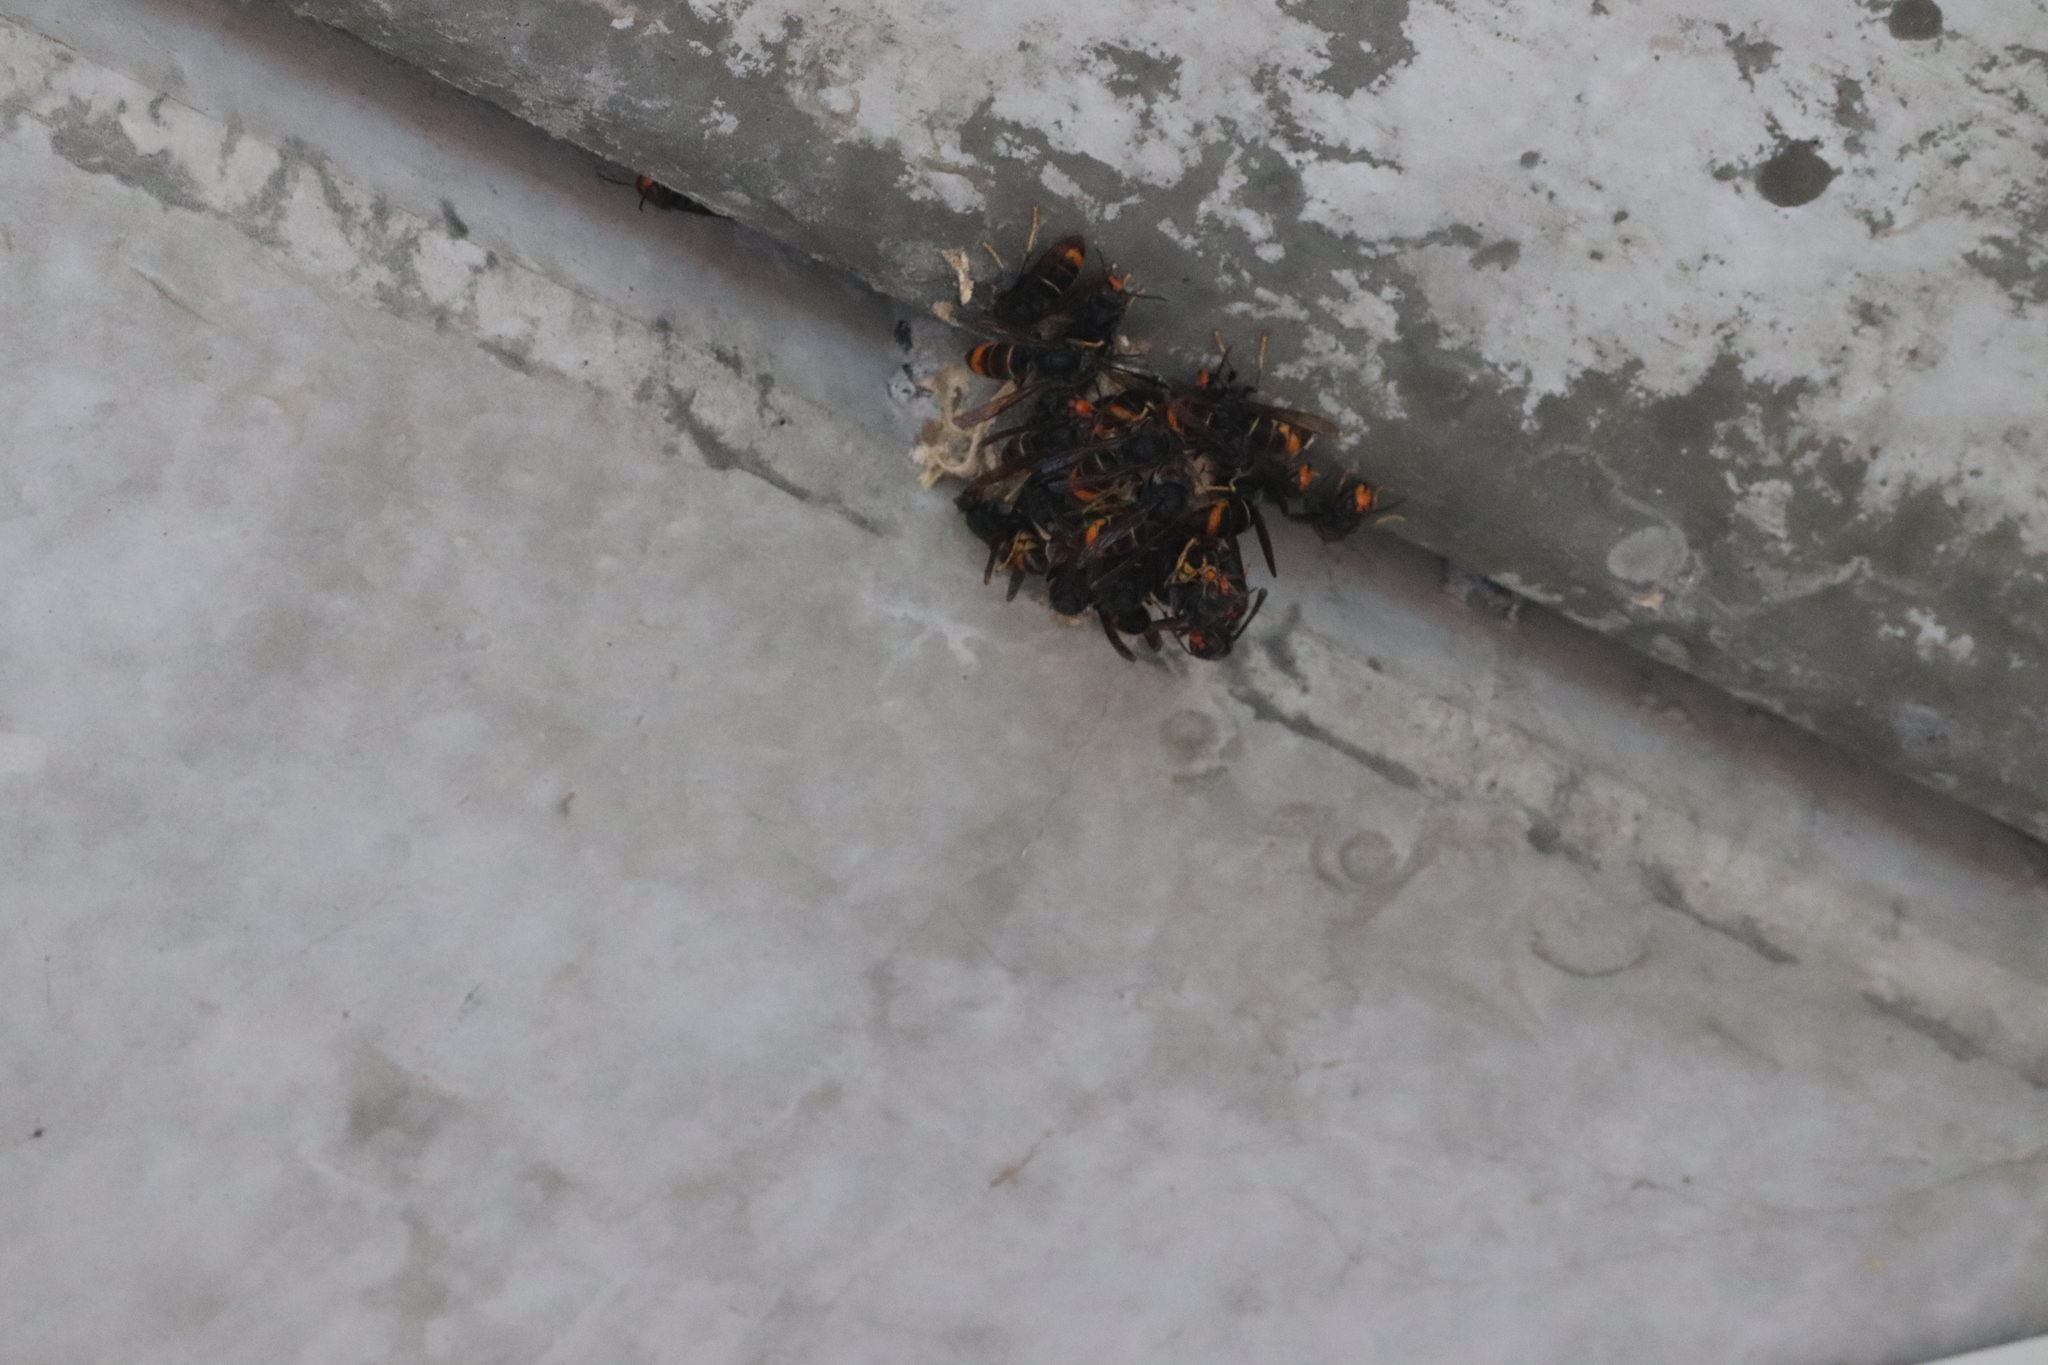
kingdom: Animalia
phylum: Arthropoda
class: Insecta
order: Hymenoptera
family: Vespidae
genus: Vespa
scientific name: Vespa velutina
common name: Asian hornet
